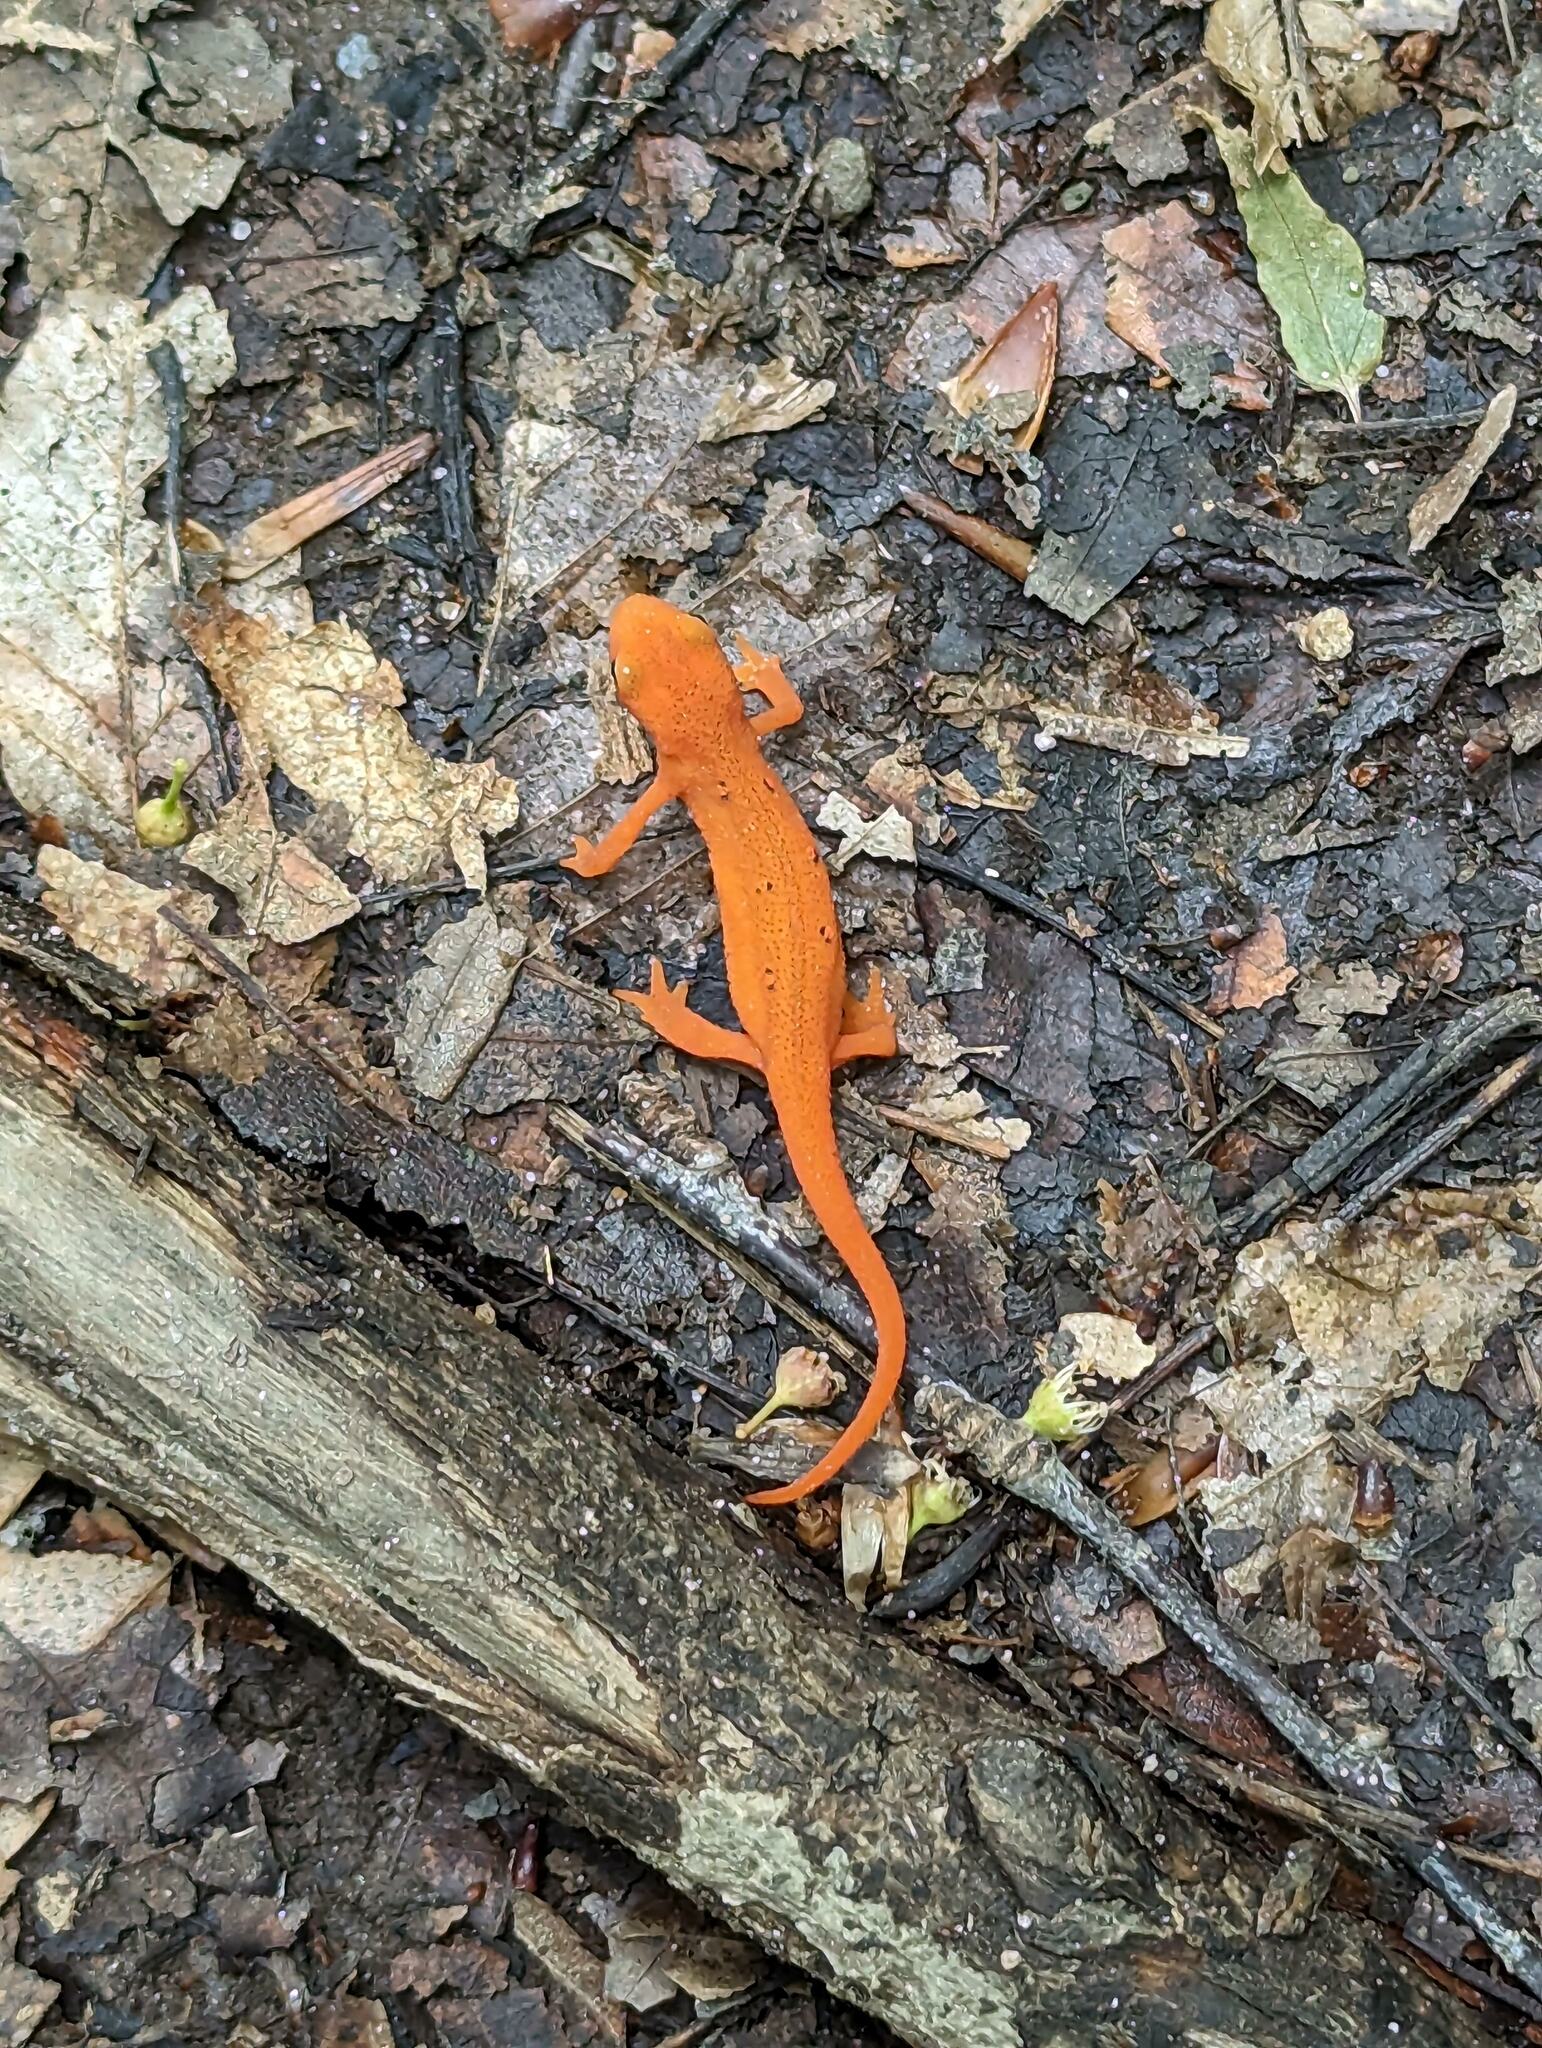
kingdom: Animalia
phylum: Chordata
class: Amphibia
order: Caudata
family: Salamandridae
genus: Notophthalmus
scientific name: Notophthalmus viridescens
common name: Eastern newt
